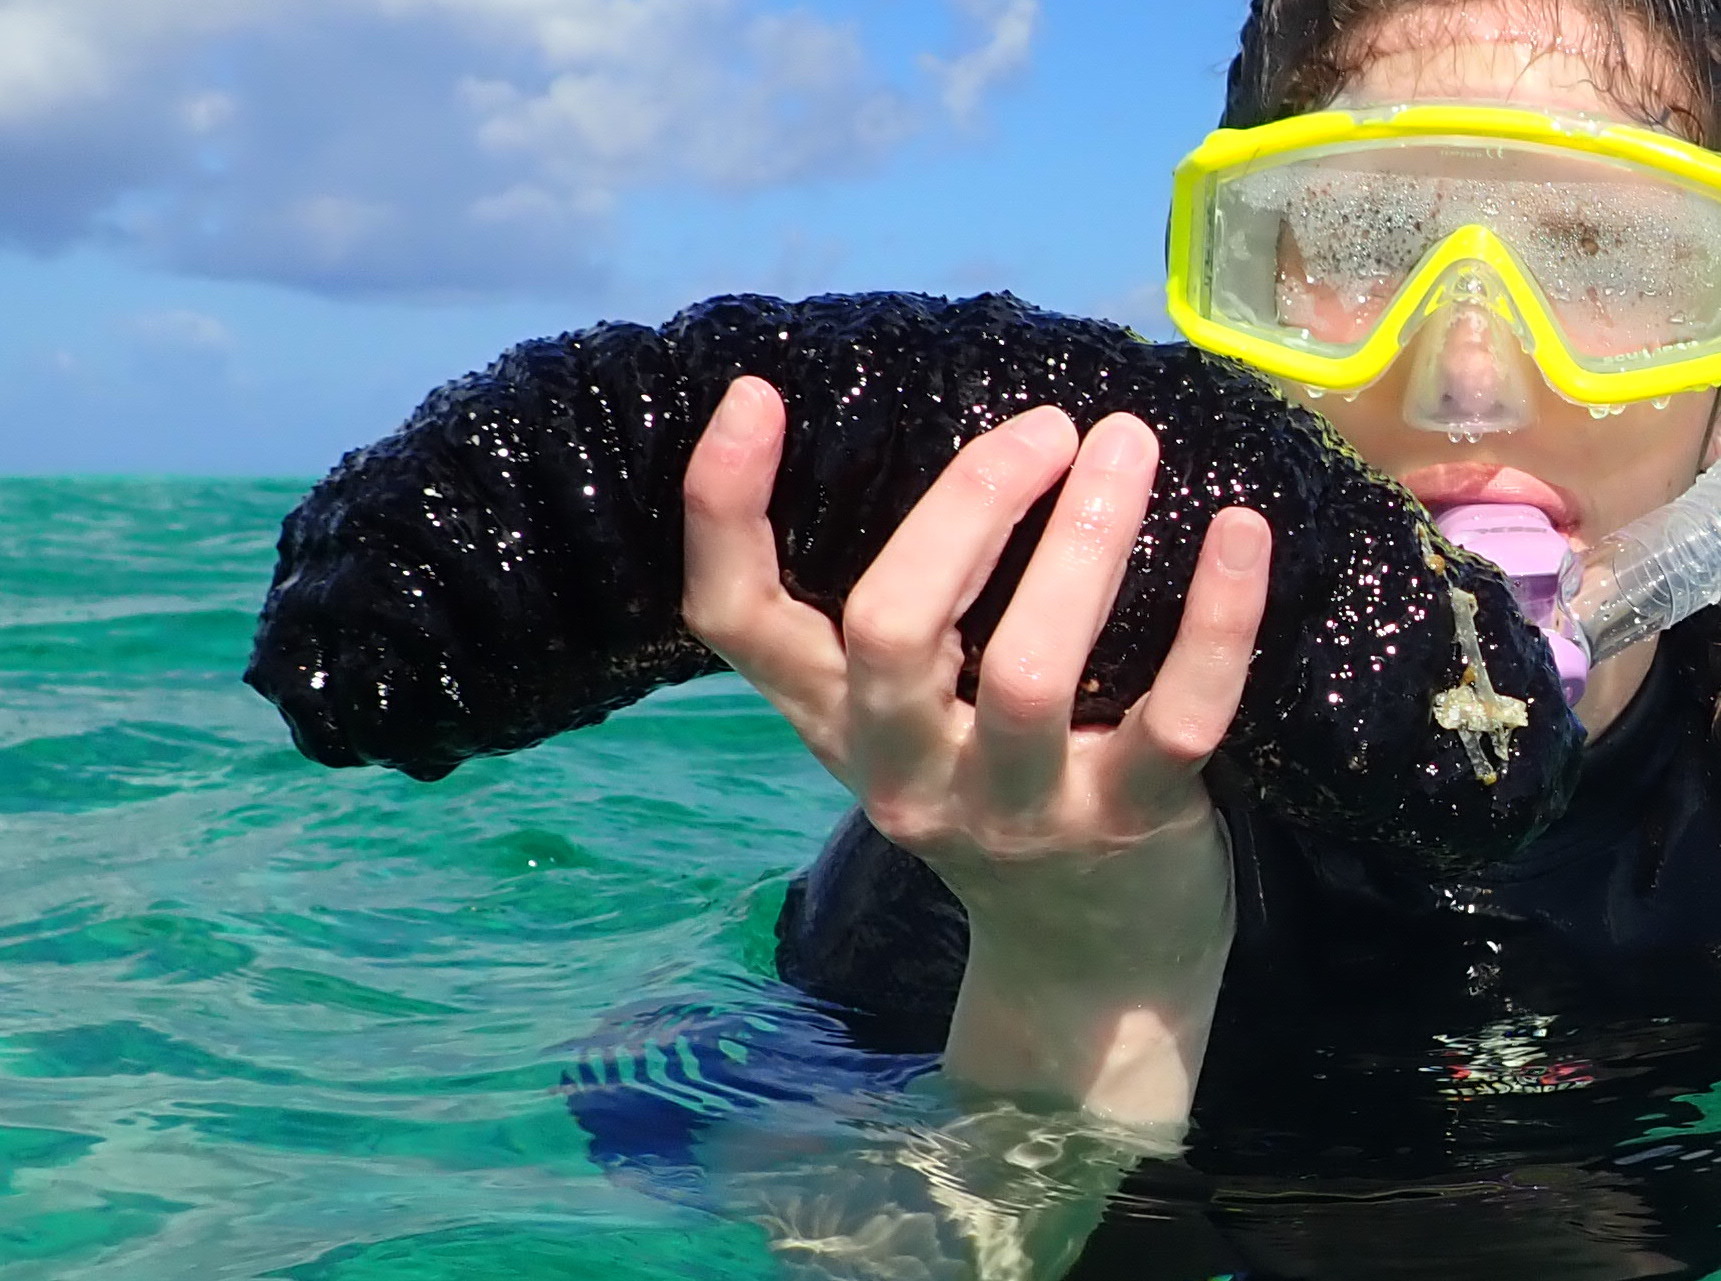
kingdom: Animalia
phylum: Echinodermata
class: Holothuroidea
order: Holothuriida
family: Holothuriidae
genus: Holothuria
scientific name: Holothuria mexicana
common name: Donkey dung sea cucumber
